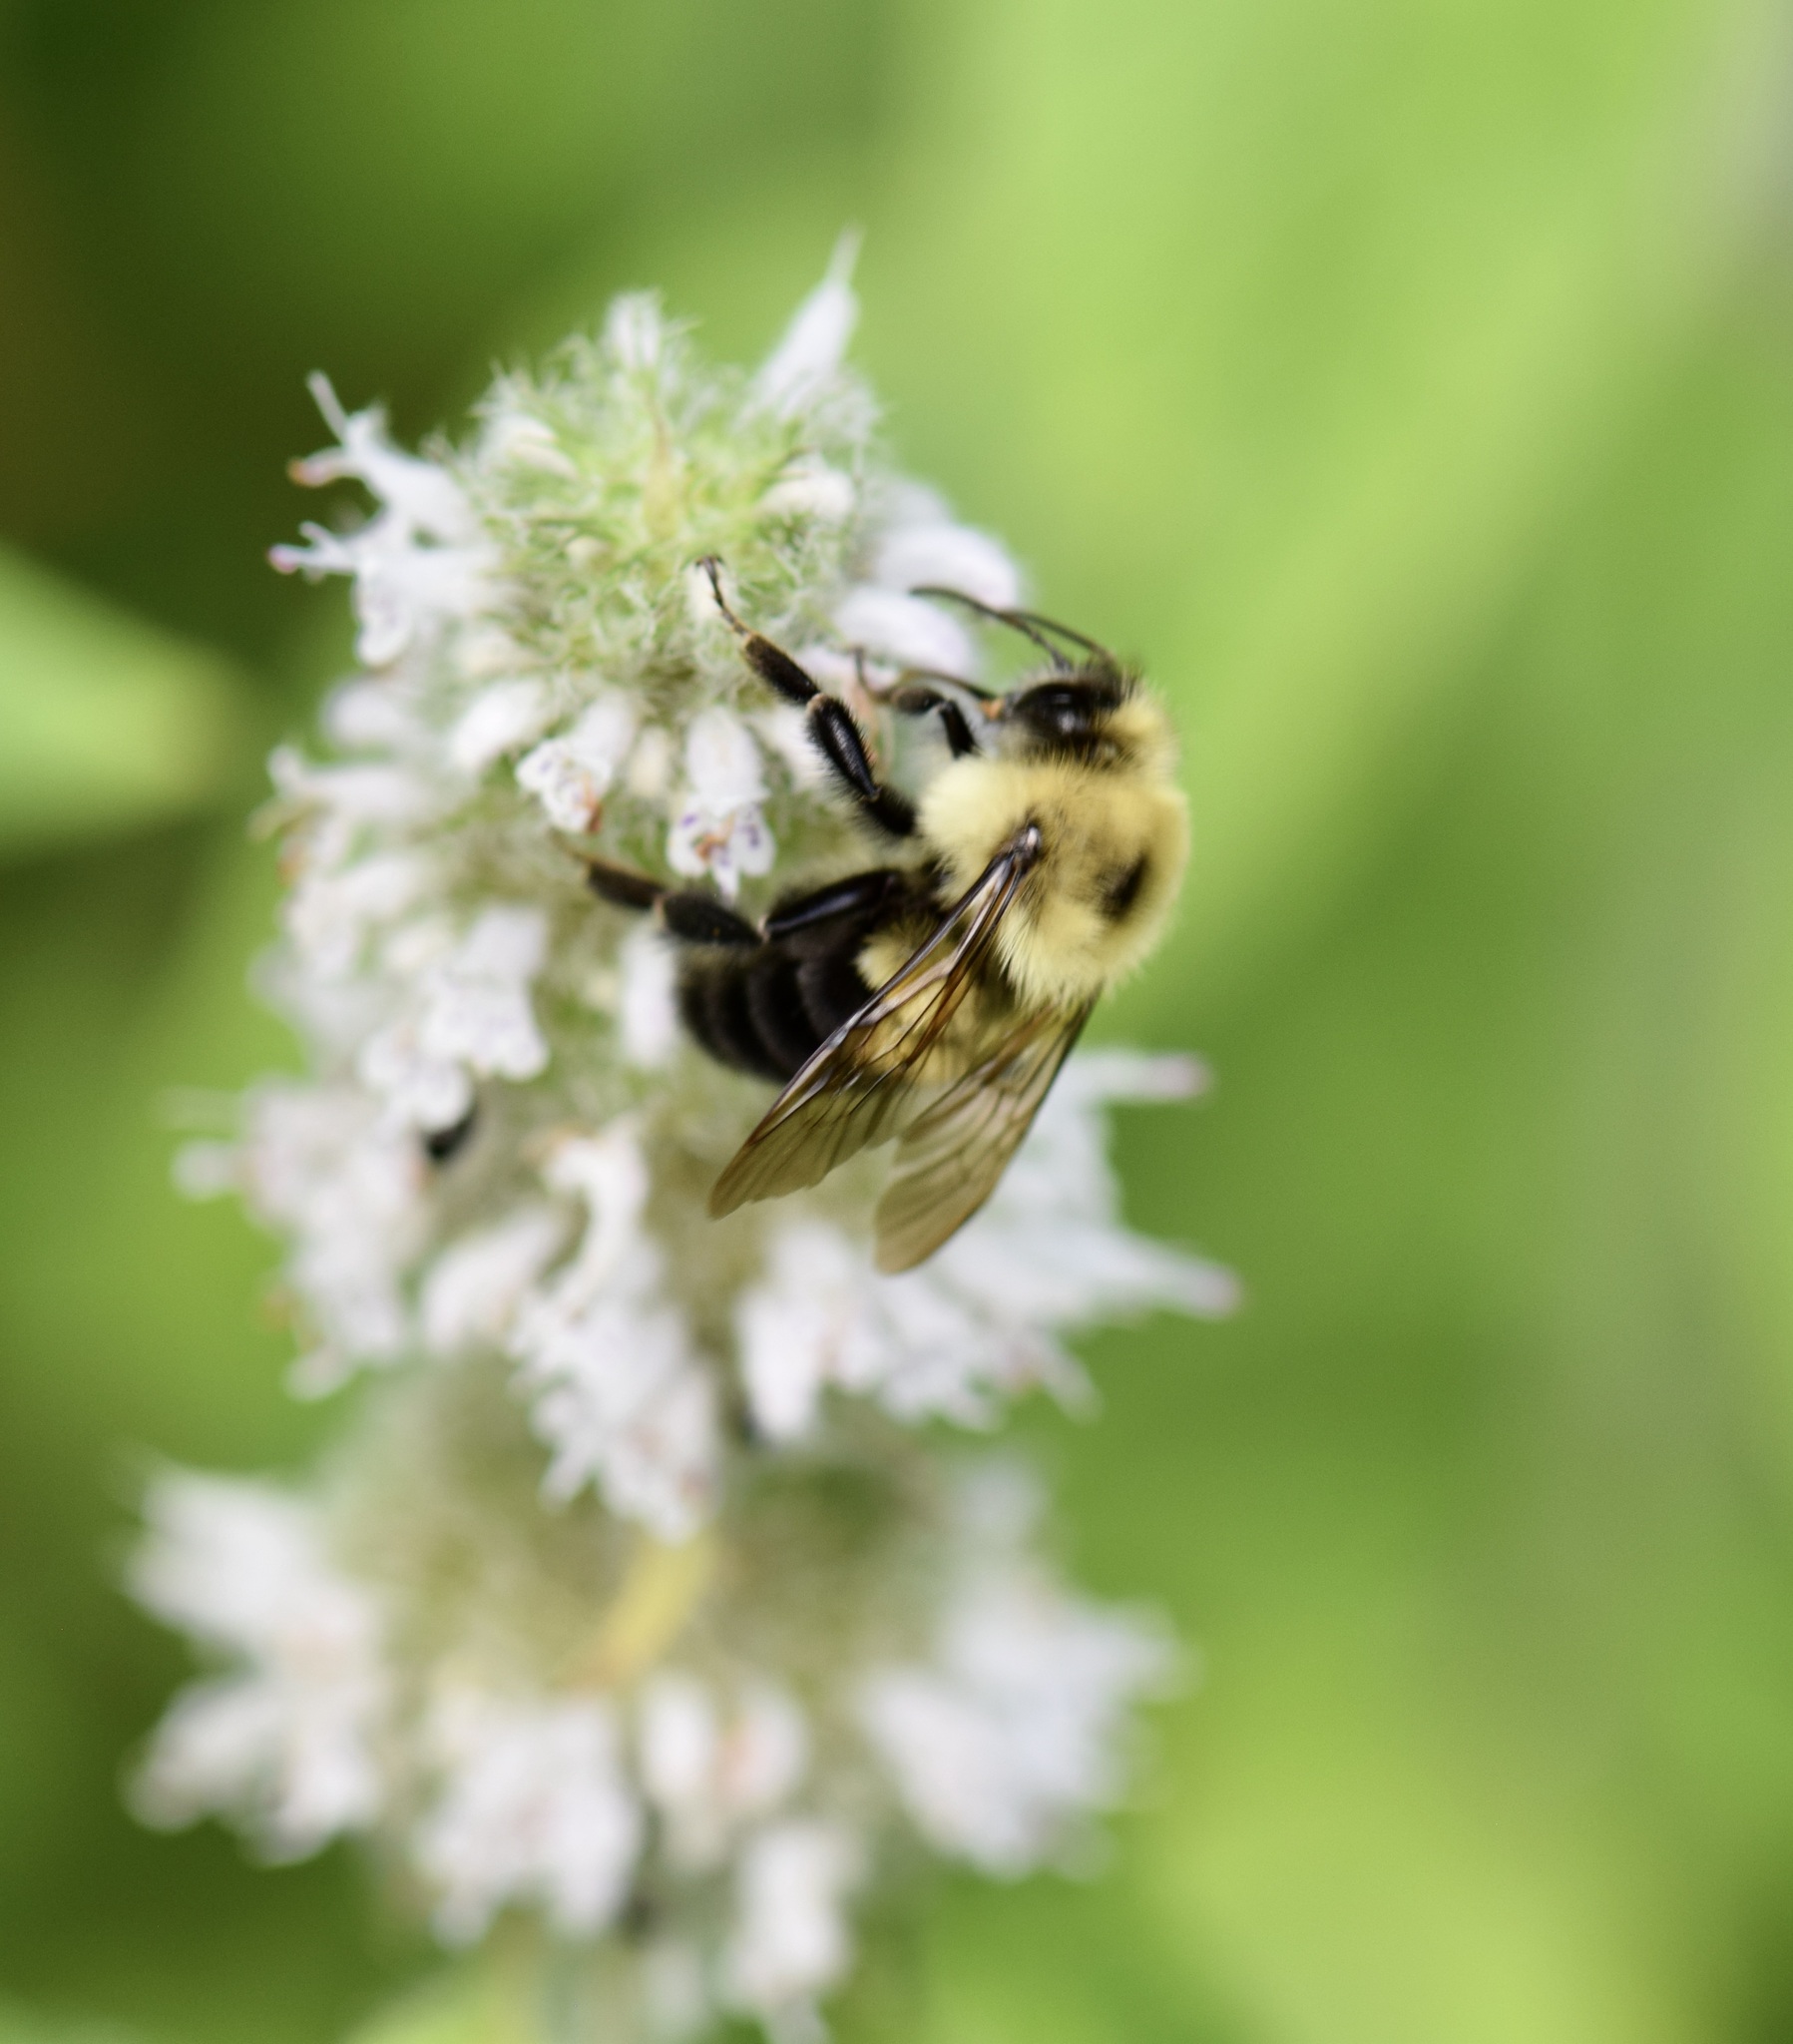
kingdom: Animalia
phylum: Arthropoda
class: Insecta
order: Hymenoptera
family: Apidae
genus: Bombus
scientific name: Bombus bimaculatus
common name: Two-spotted bumble bee
